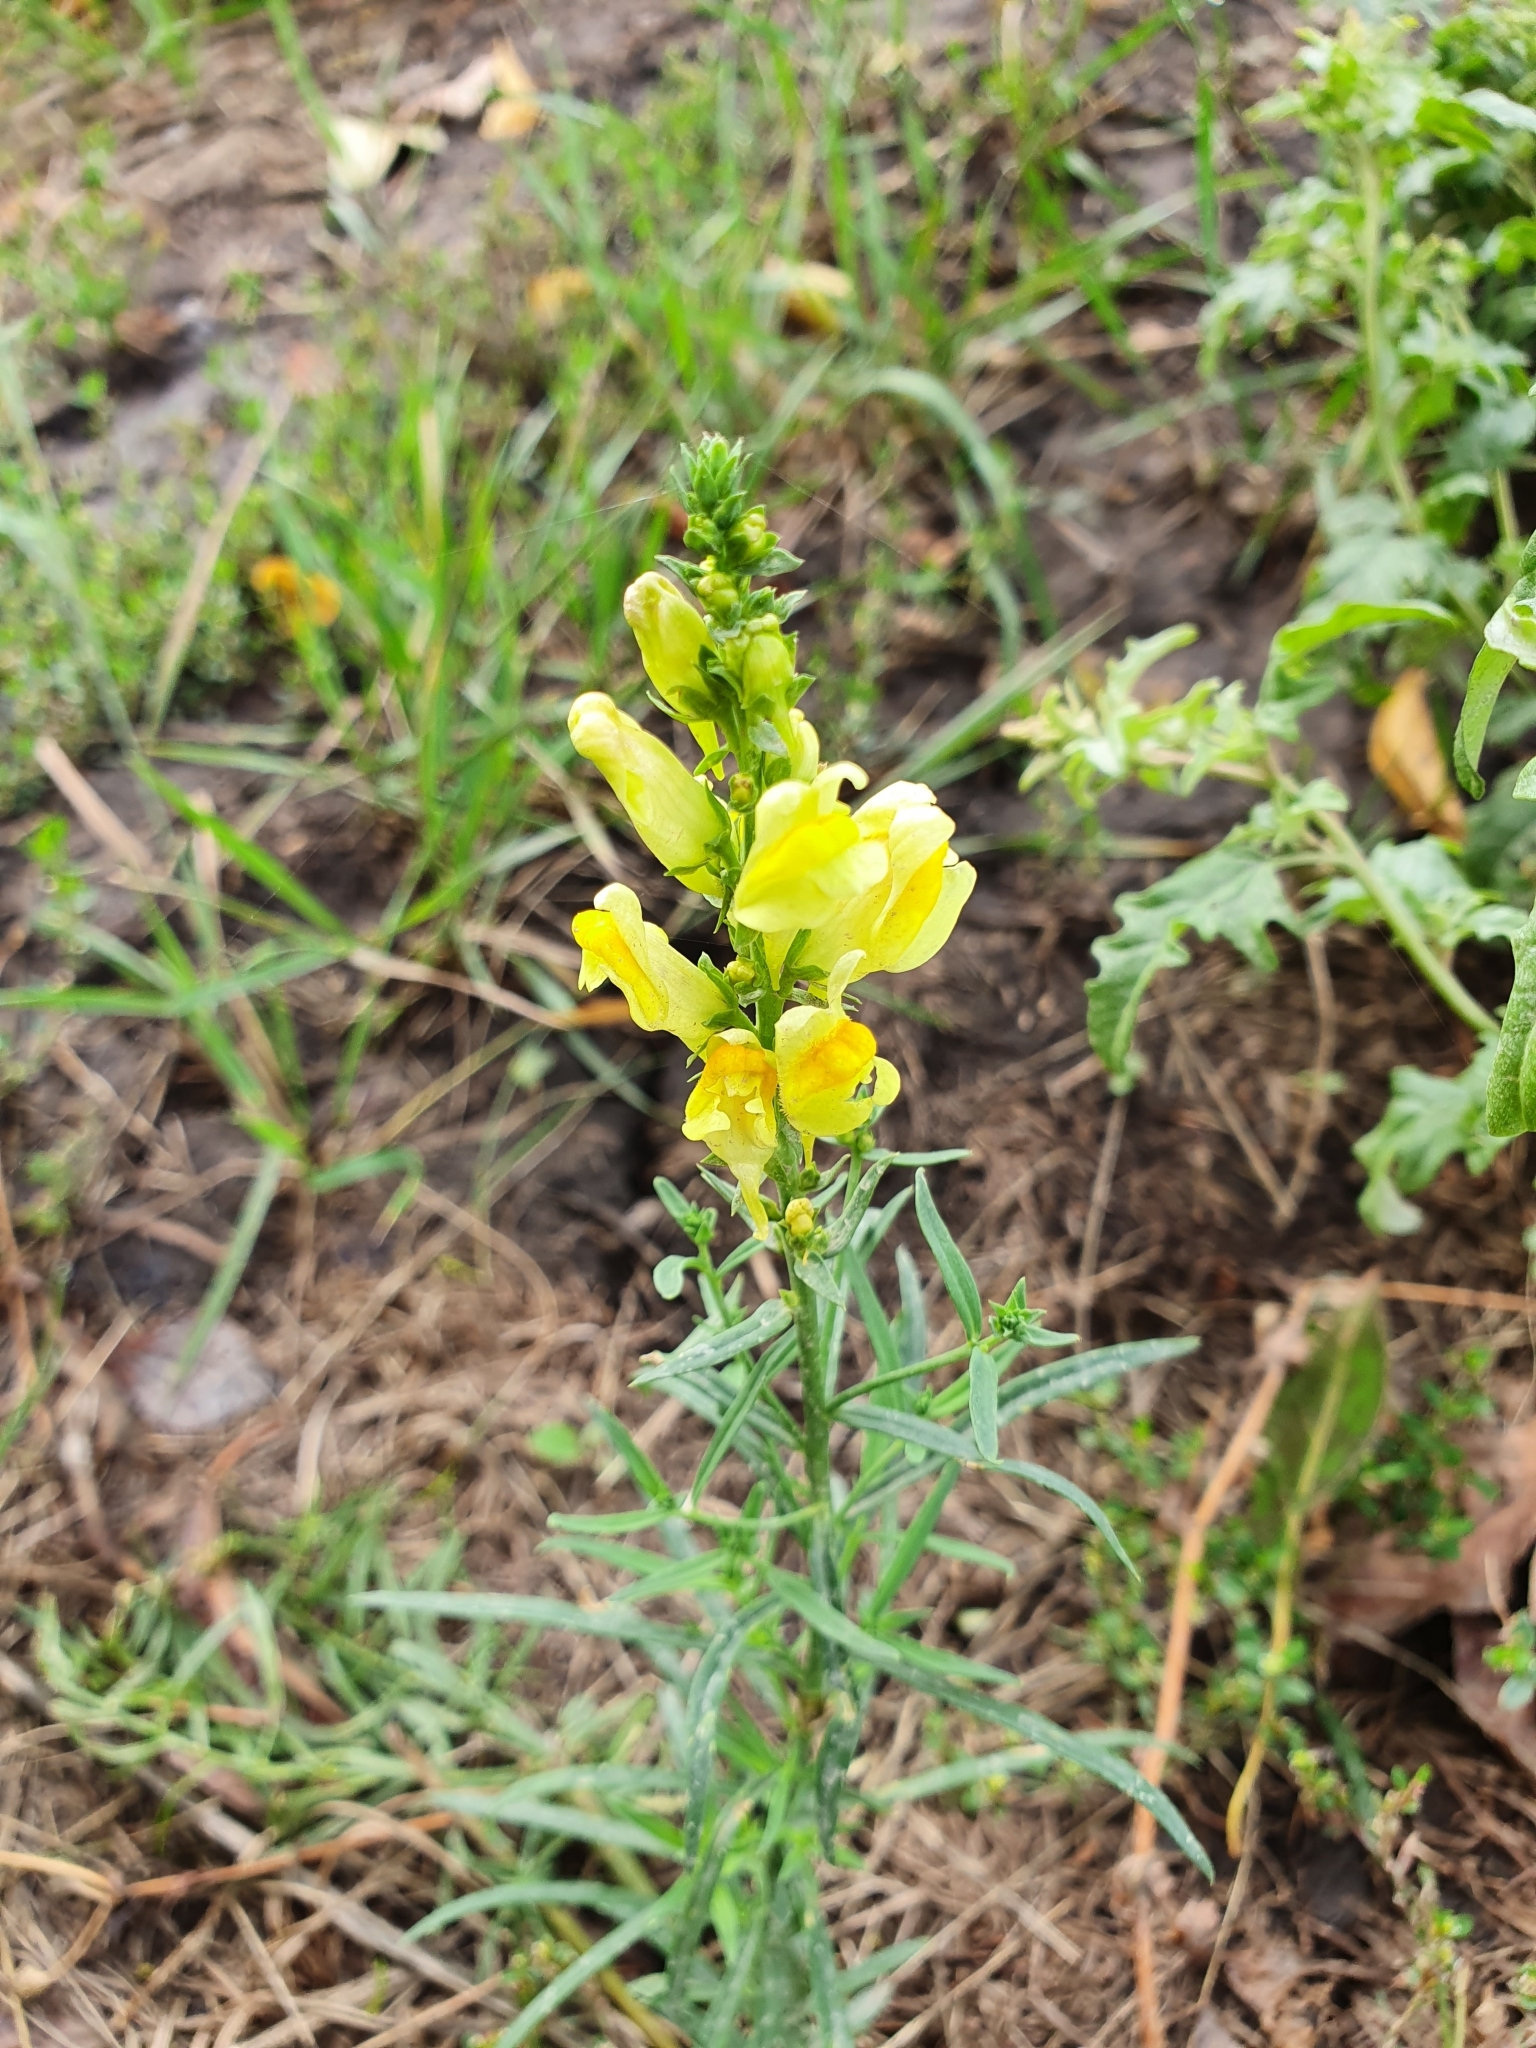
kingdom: Plantae
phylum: Tracheophyta
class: Magnoliopsida
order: Lamiales
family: Plantaginaceae
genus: Linaria
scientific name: Linaria vulgaris
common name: Butter and eggs
